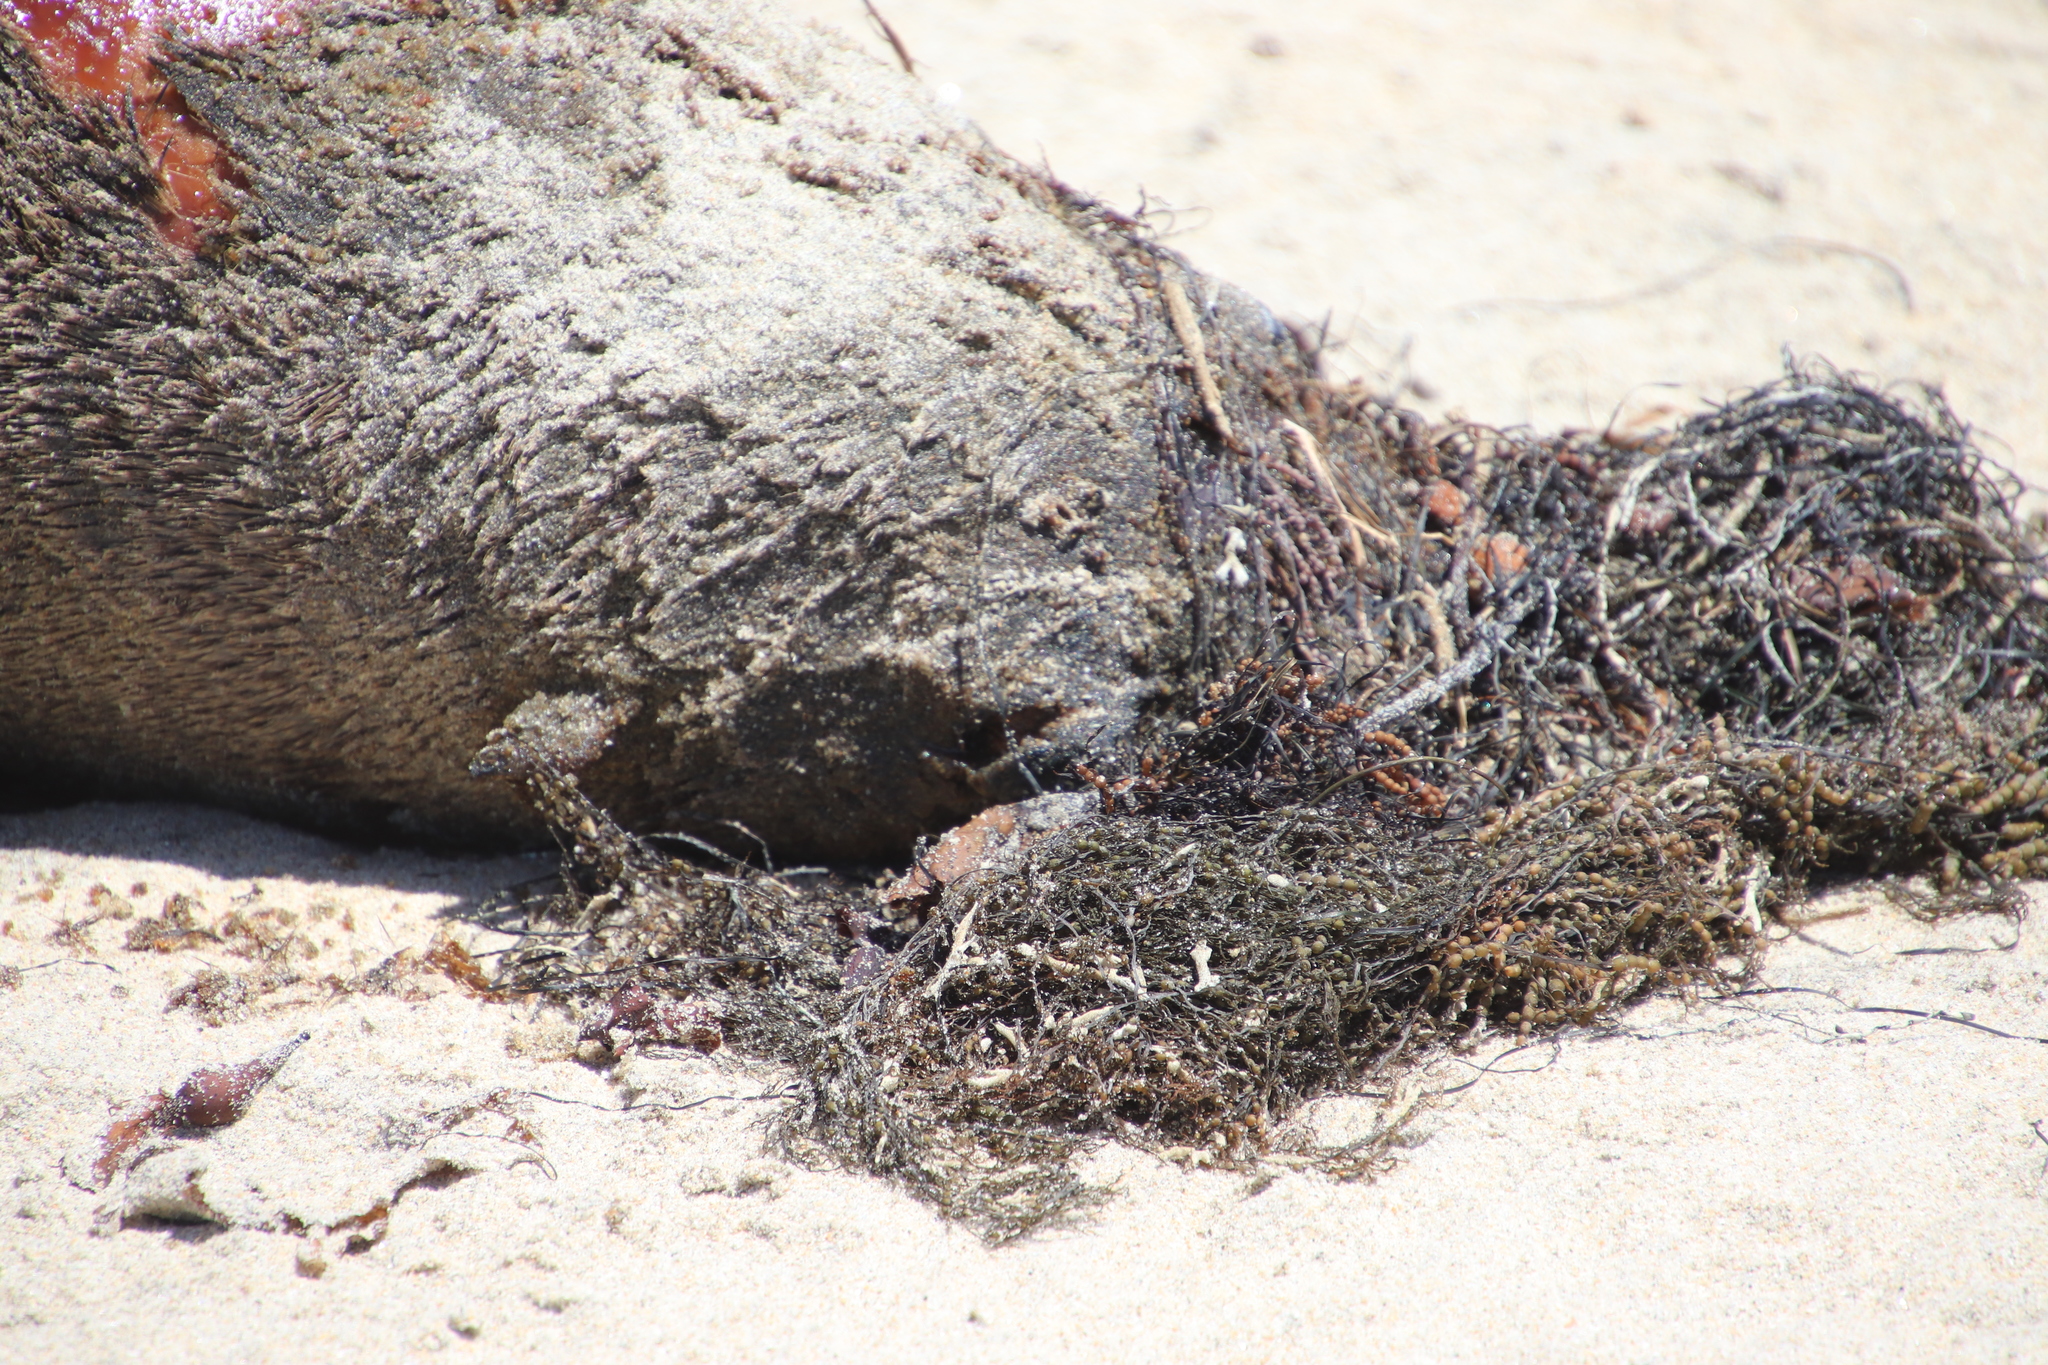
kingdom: Animalia
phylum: Chordata
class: Mammalia
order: Carnivora
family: Otariidae
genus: Zalophus
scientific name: Zalophus californianus
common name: California sea lion
